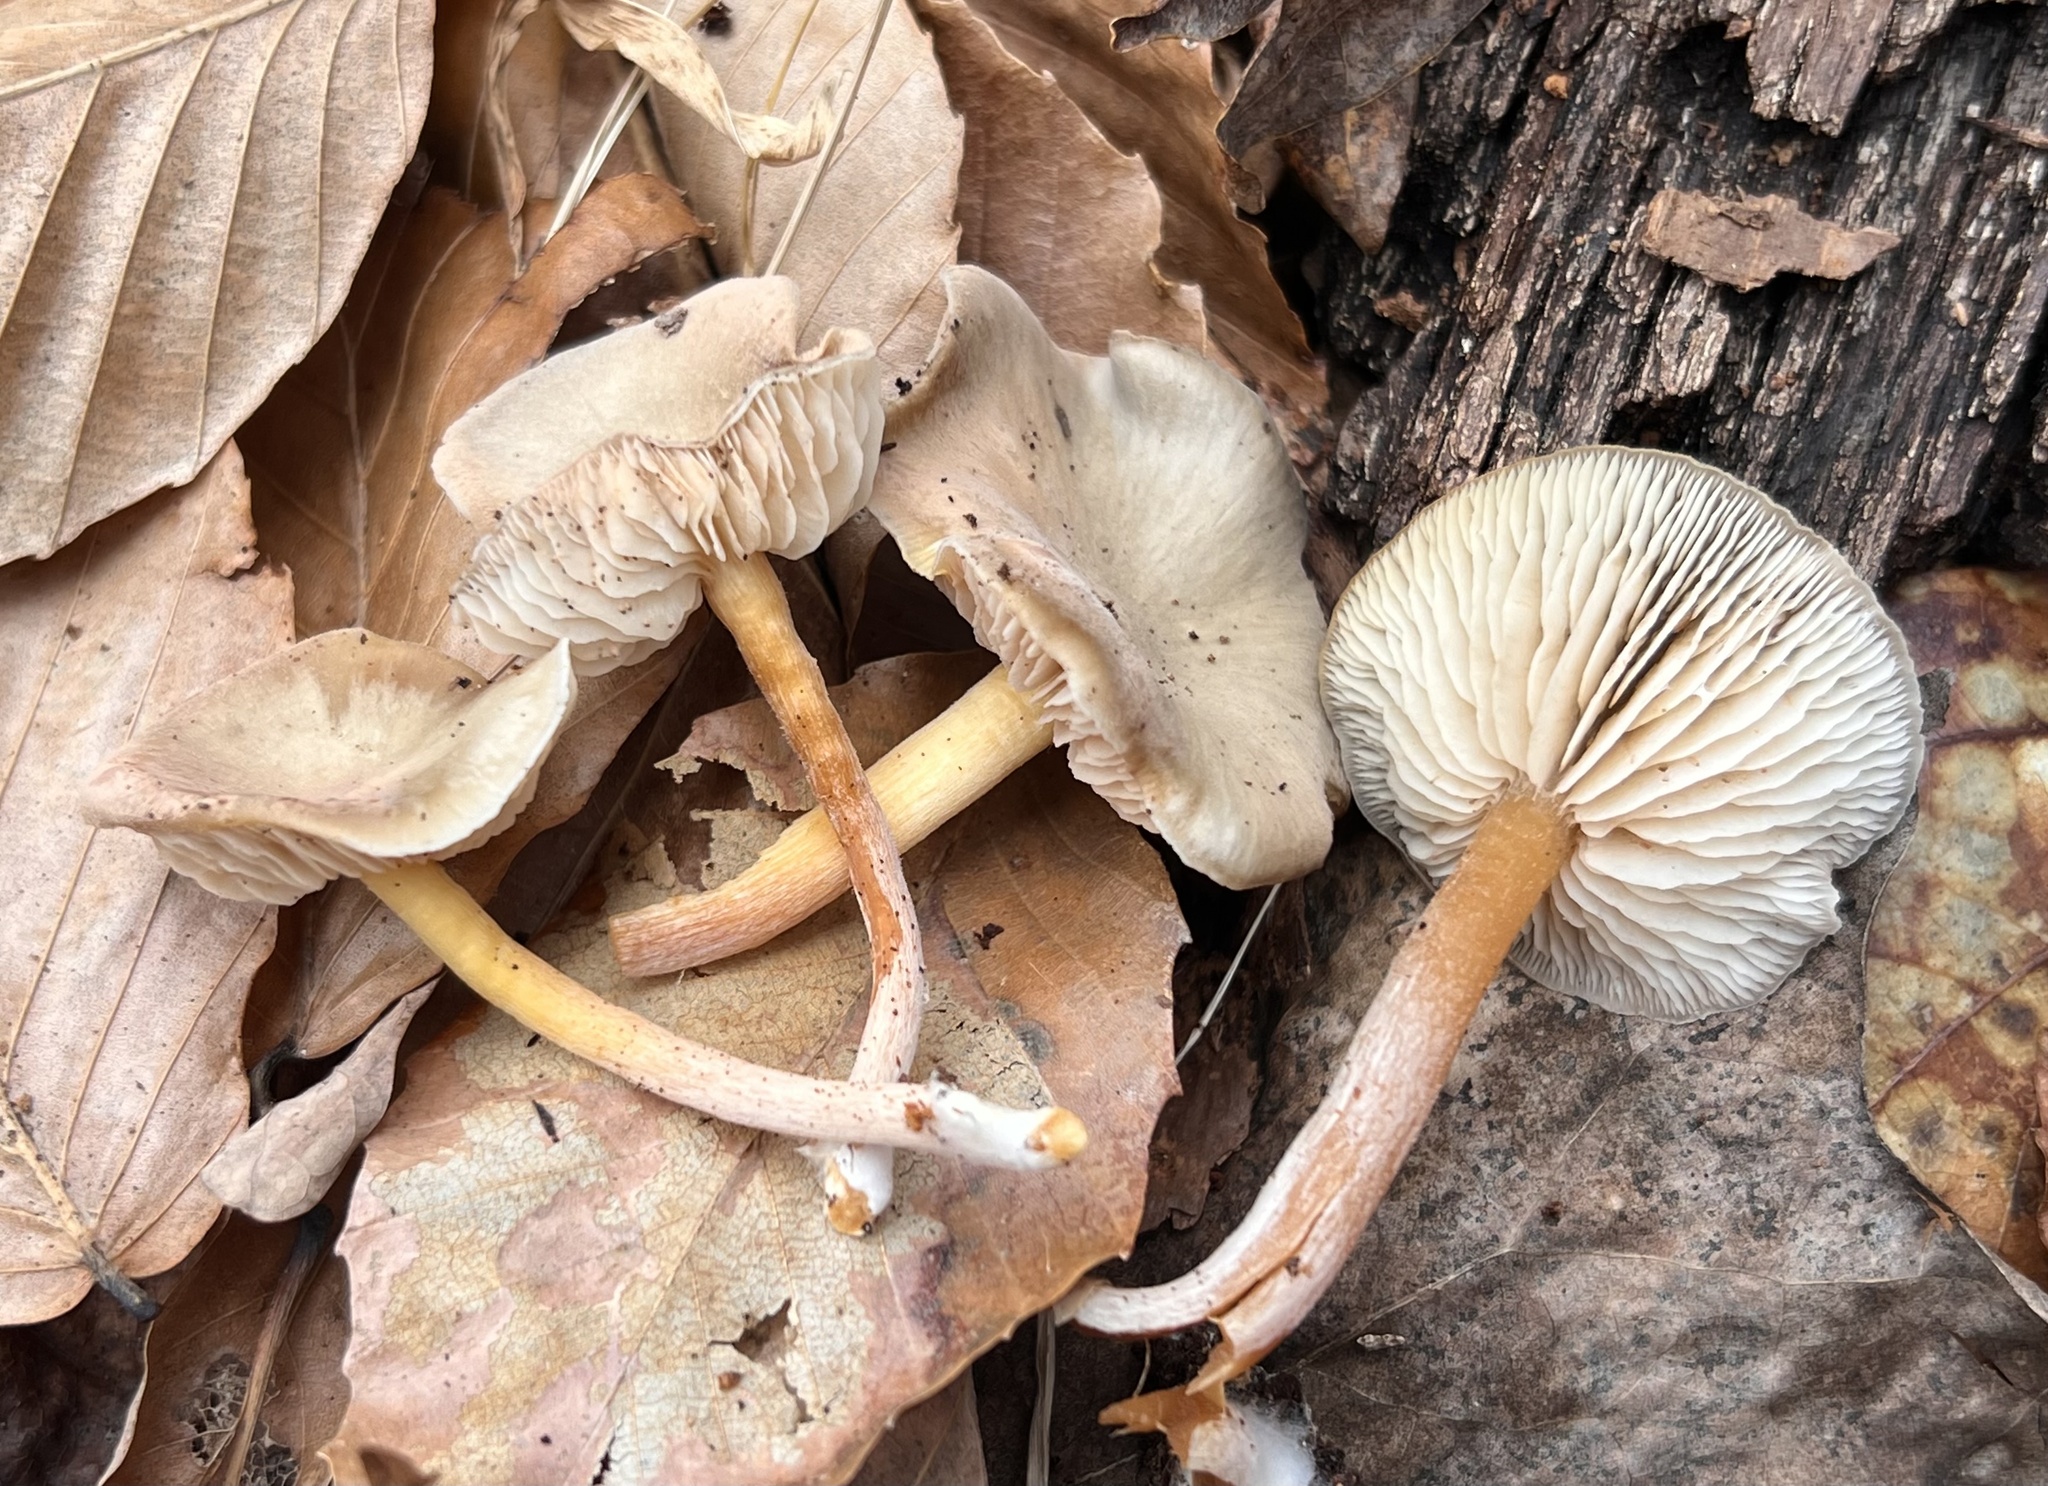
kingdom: Fungi
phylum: Basidiomycota
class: Agaricomycetes
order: Agaricales
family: Entolomataceae
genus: Entocybe
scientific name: Entocybe speciosa
